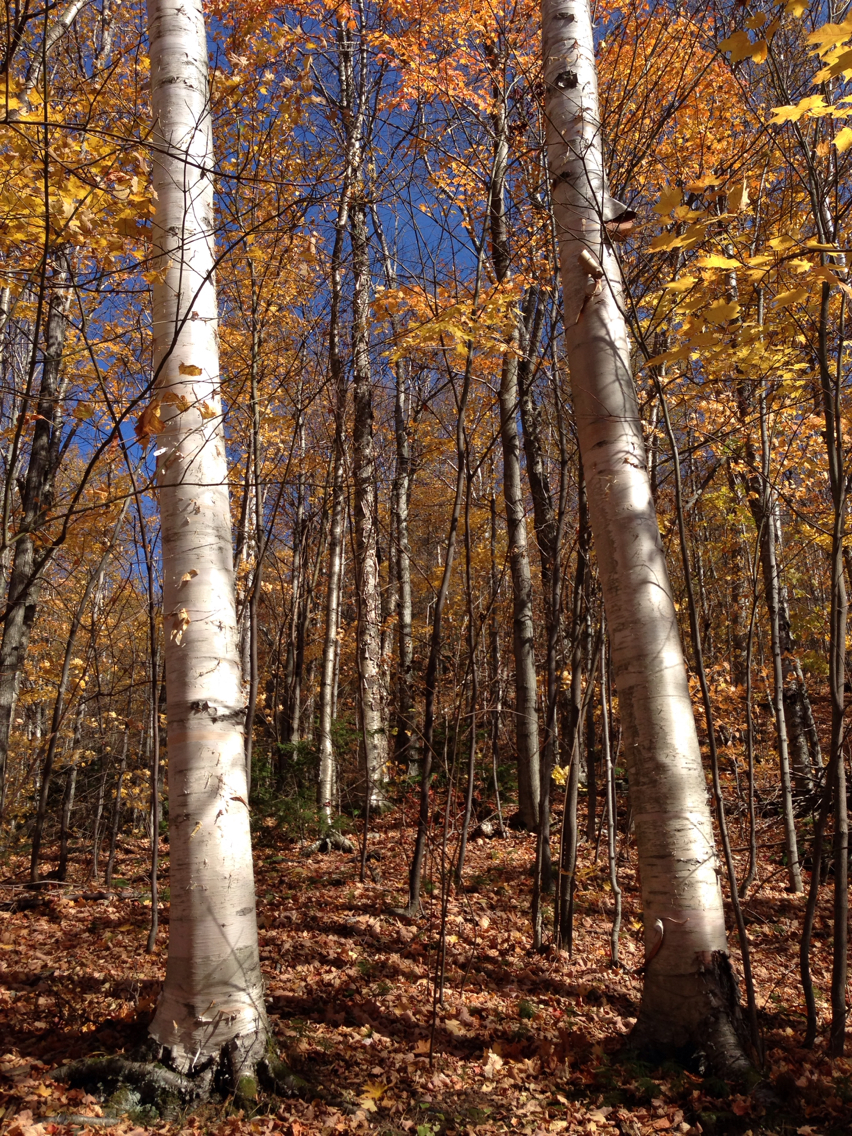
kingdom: Plantae
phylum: Tracheophyta
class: Magnoliopsida
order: Fagales
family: Betulaceae
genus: Betula
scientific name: Betula cordifolia
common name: Mountain white birch
